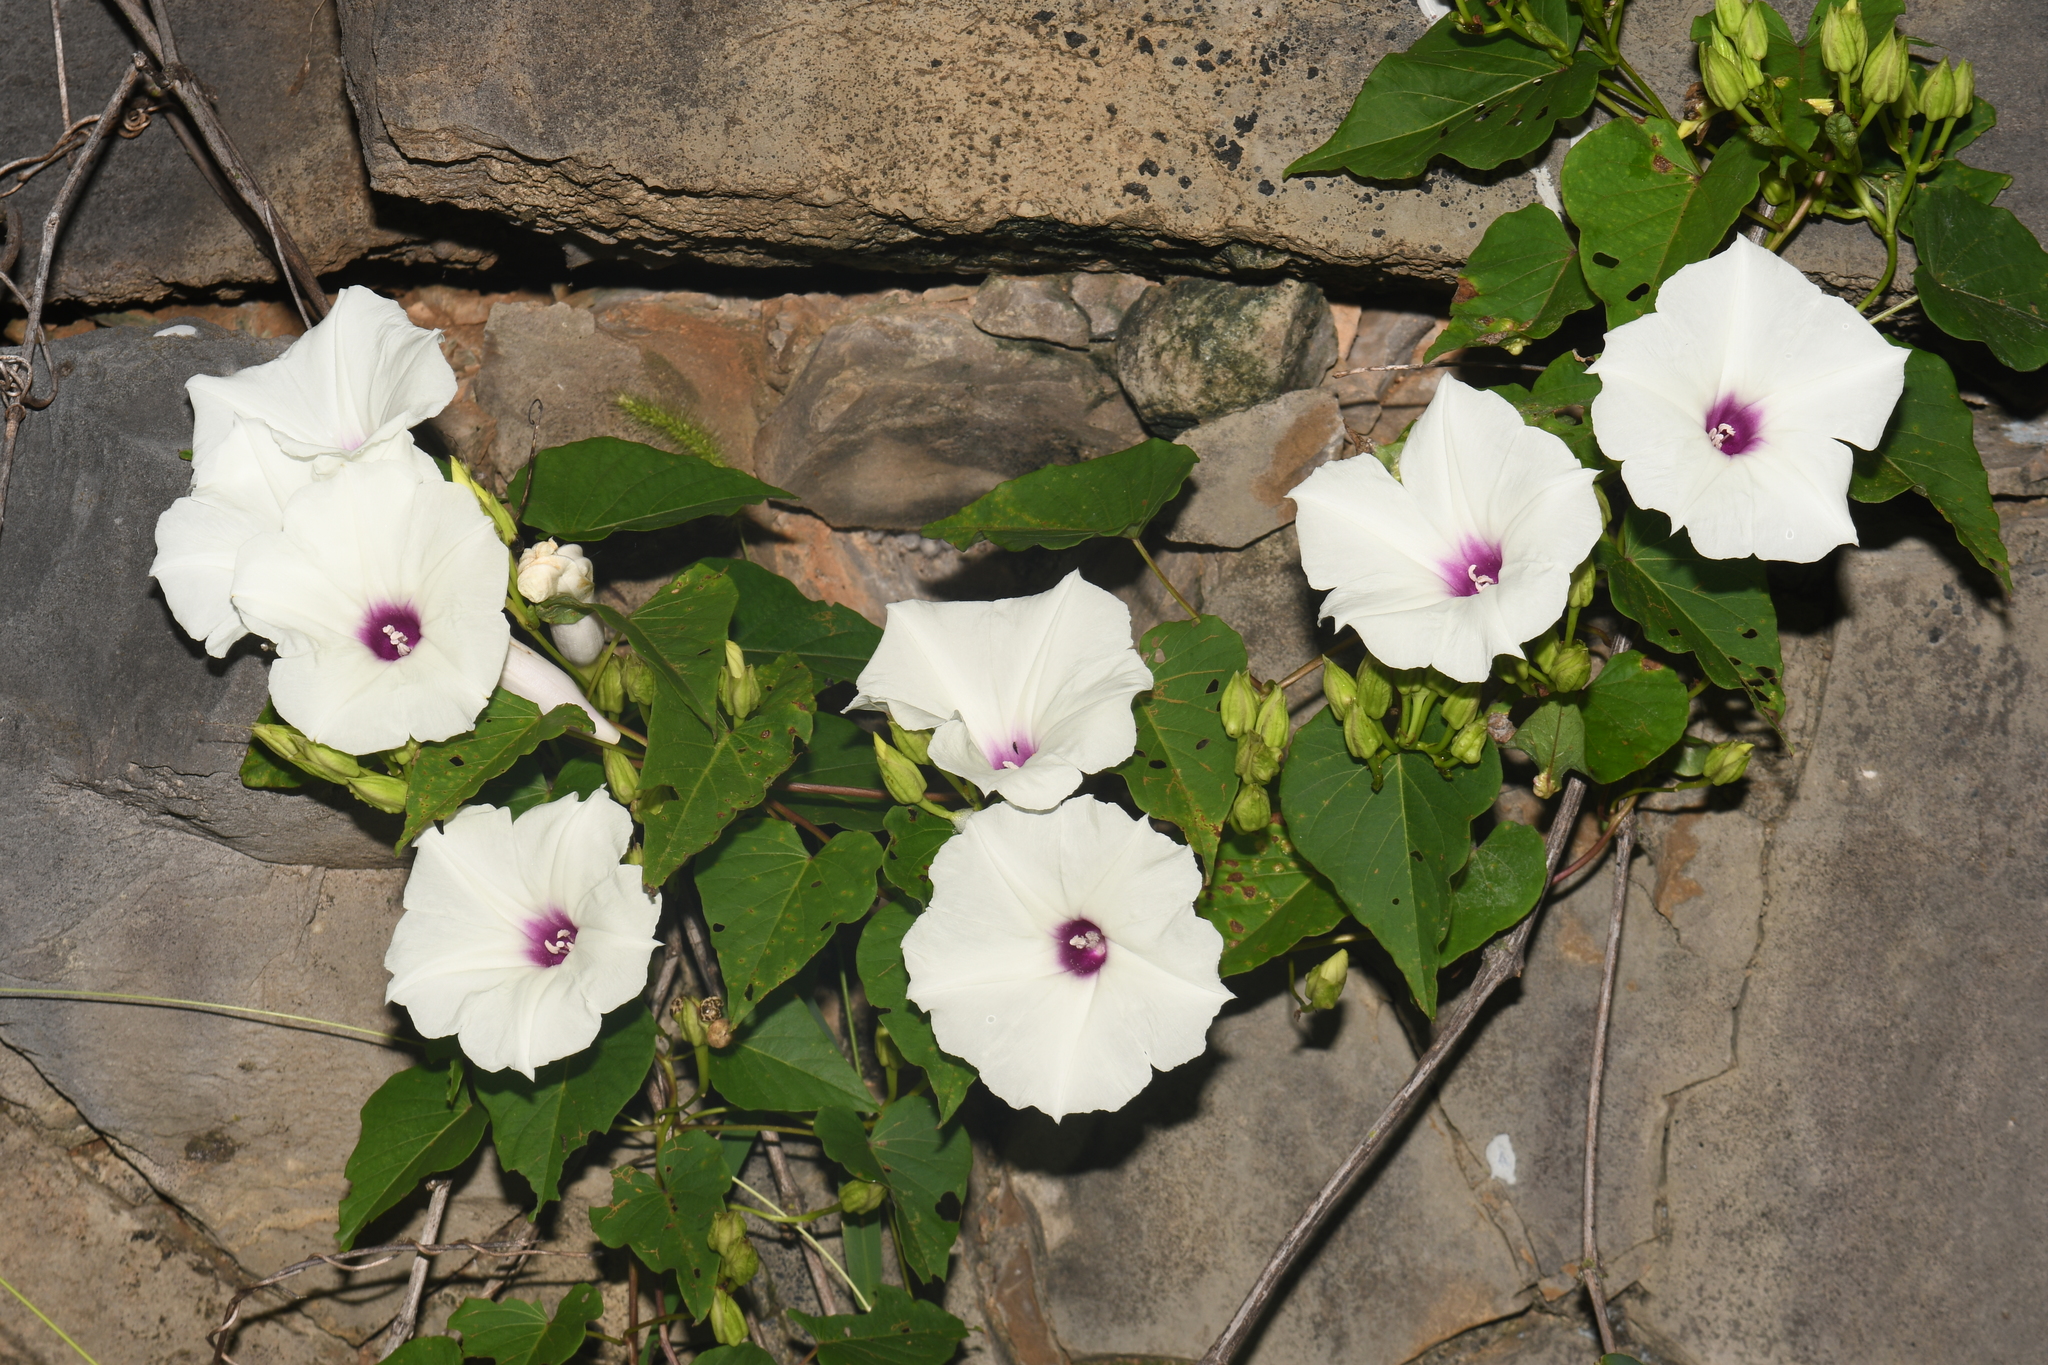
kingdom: Plantae
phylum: Tracheophyta
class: Magnoliopsida
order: Solanales
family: Convolvulaceae
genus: Ipomoea
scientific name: Ipomoea pandurata
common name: Man-of-the-earth
